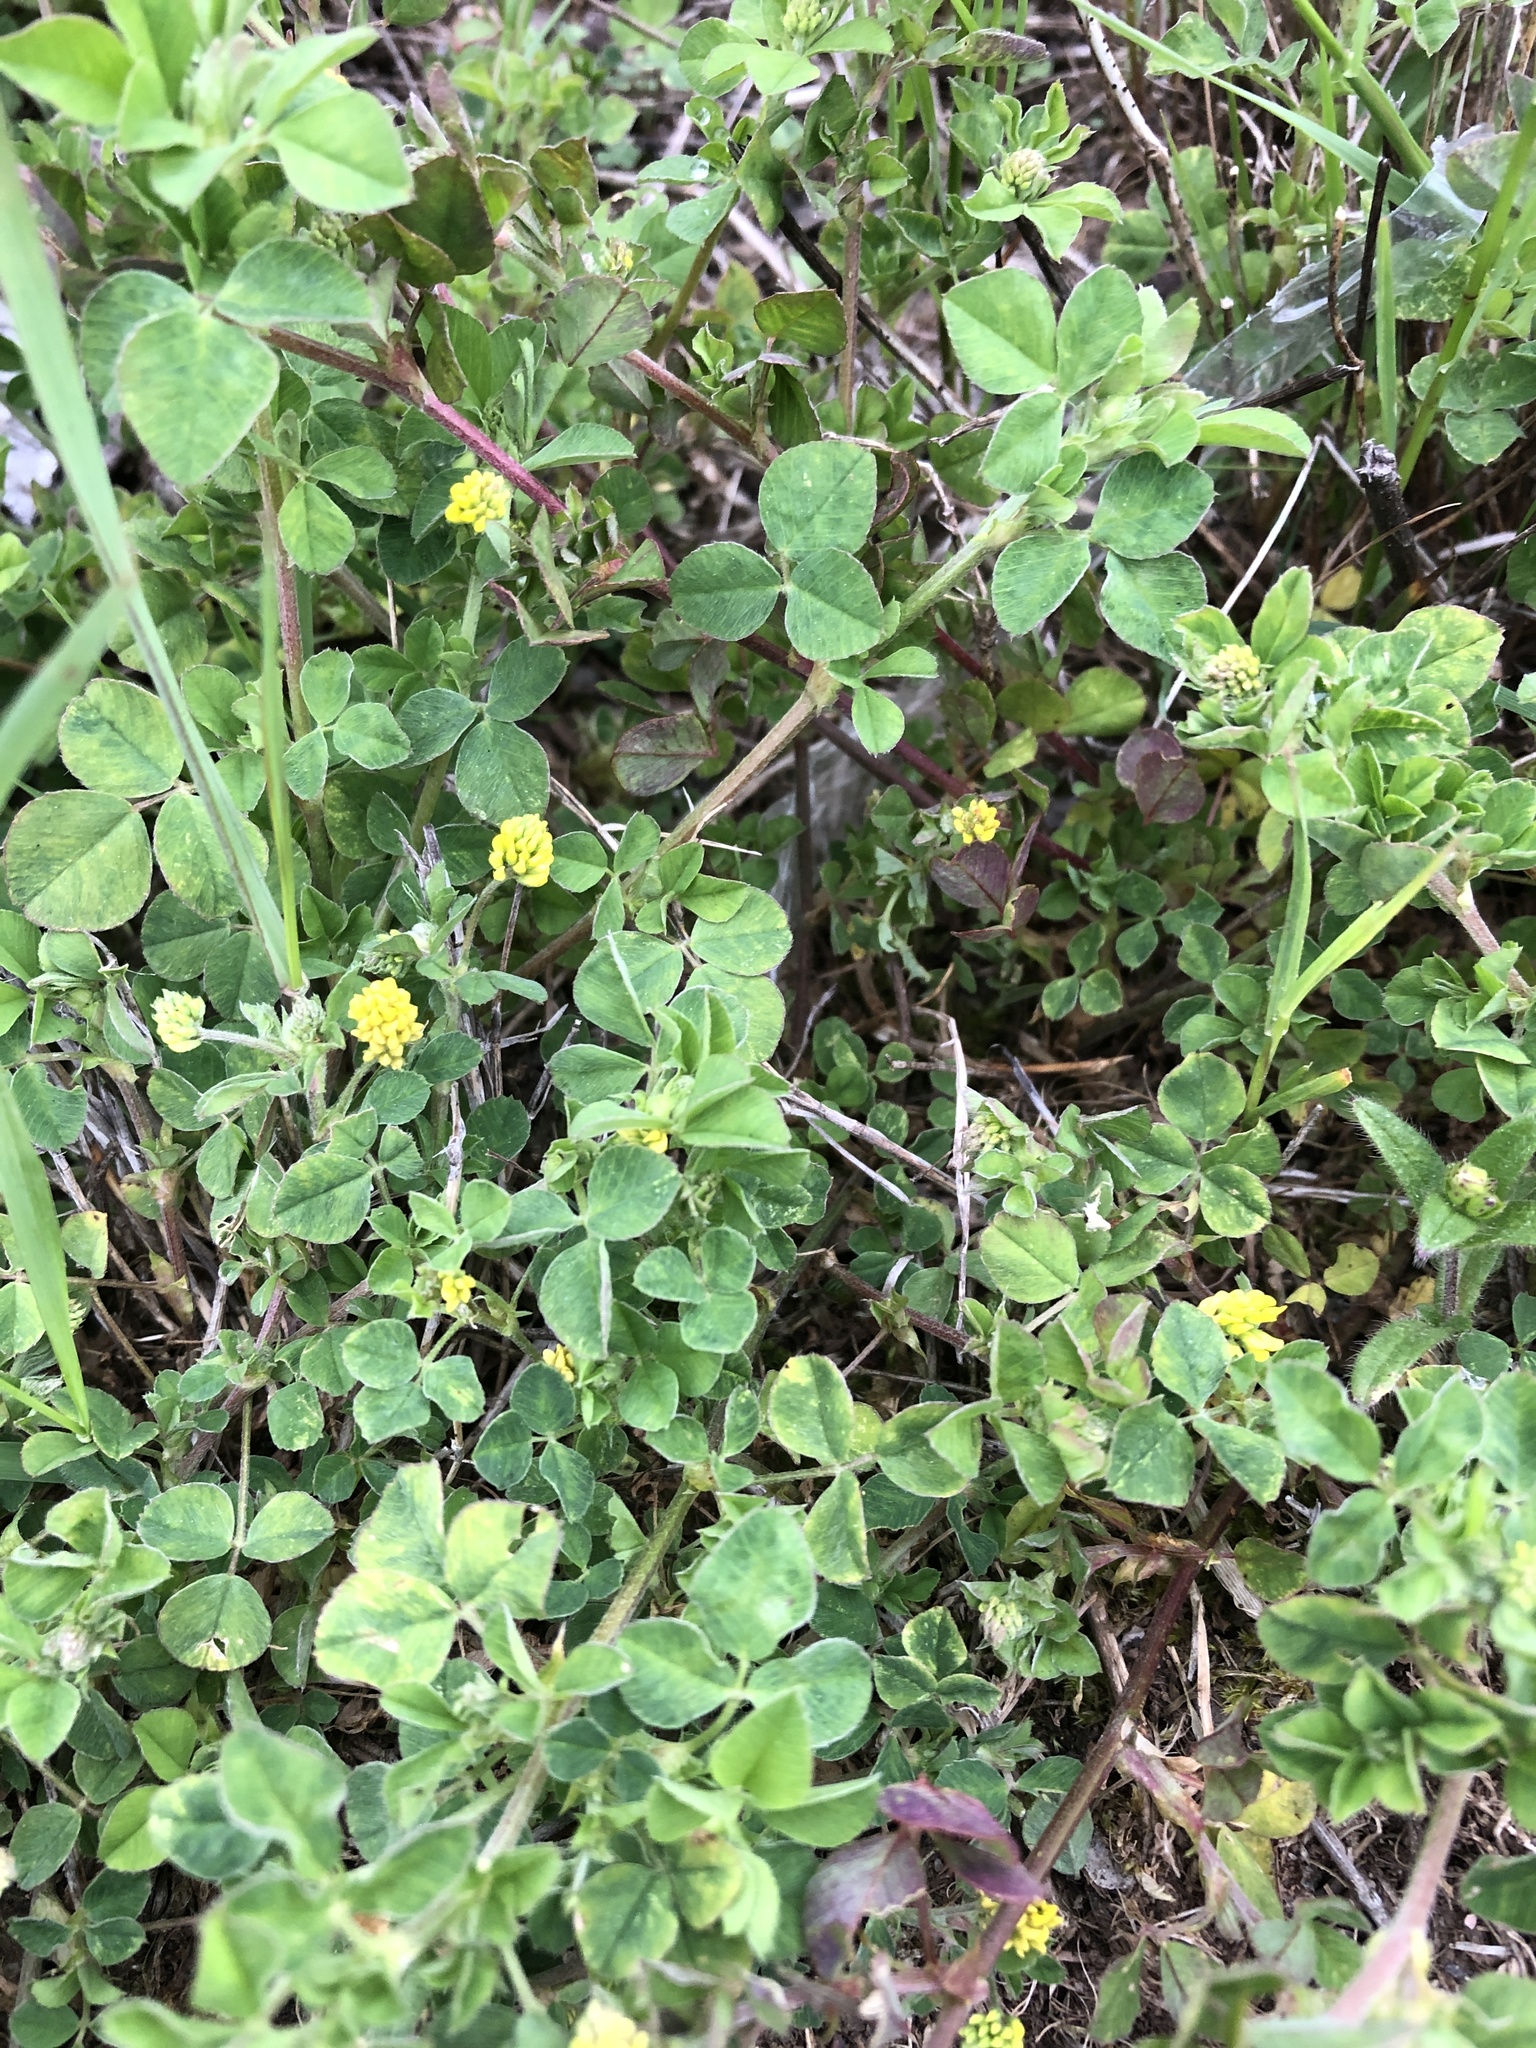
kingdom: Plantae
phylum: Tracheophyta
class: Magnoliopsida
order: Fabales
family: Fabaceae
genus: Medicago
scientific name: Medicago lupulina
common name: Black medick
